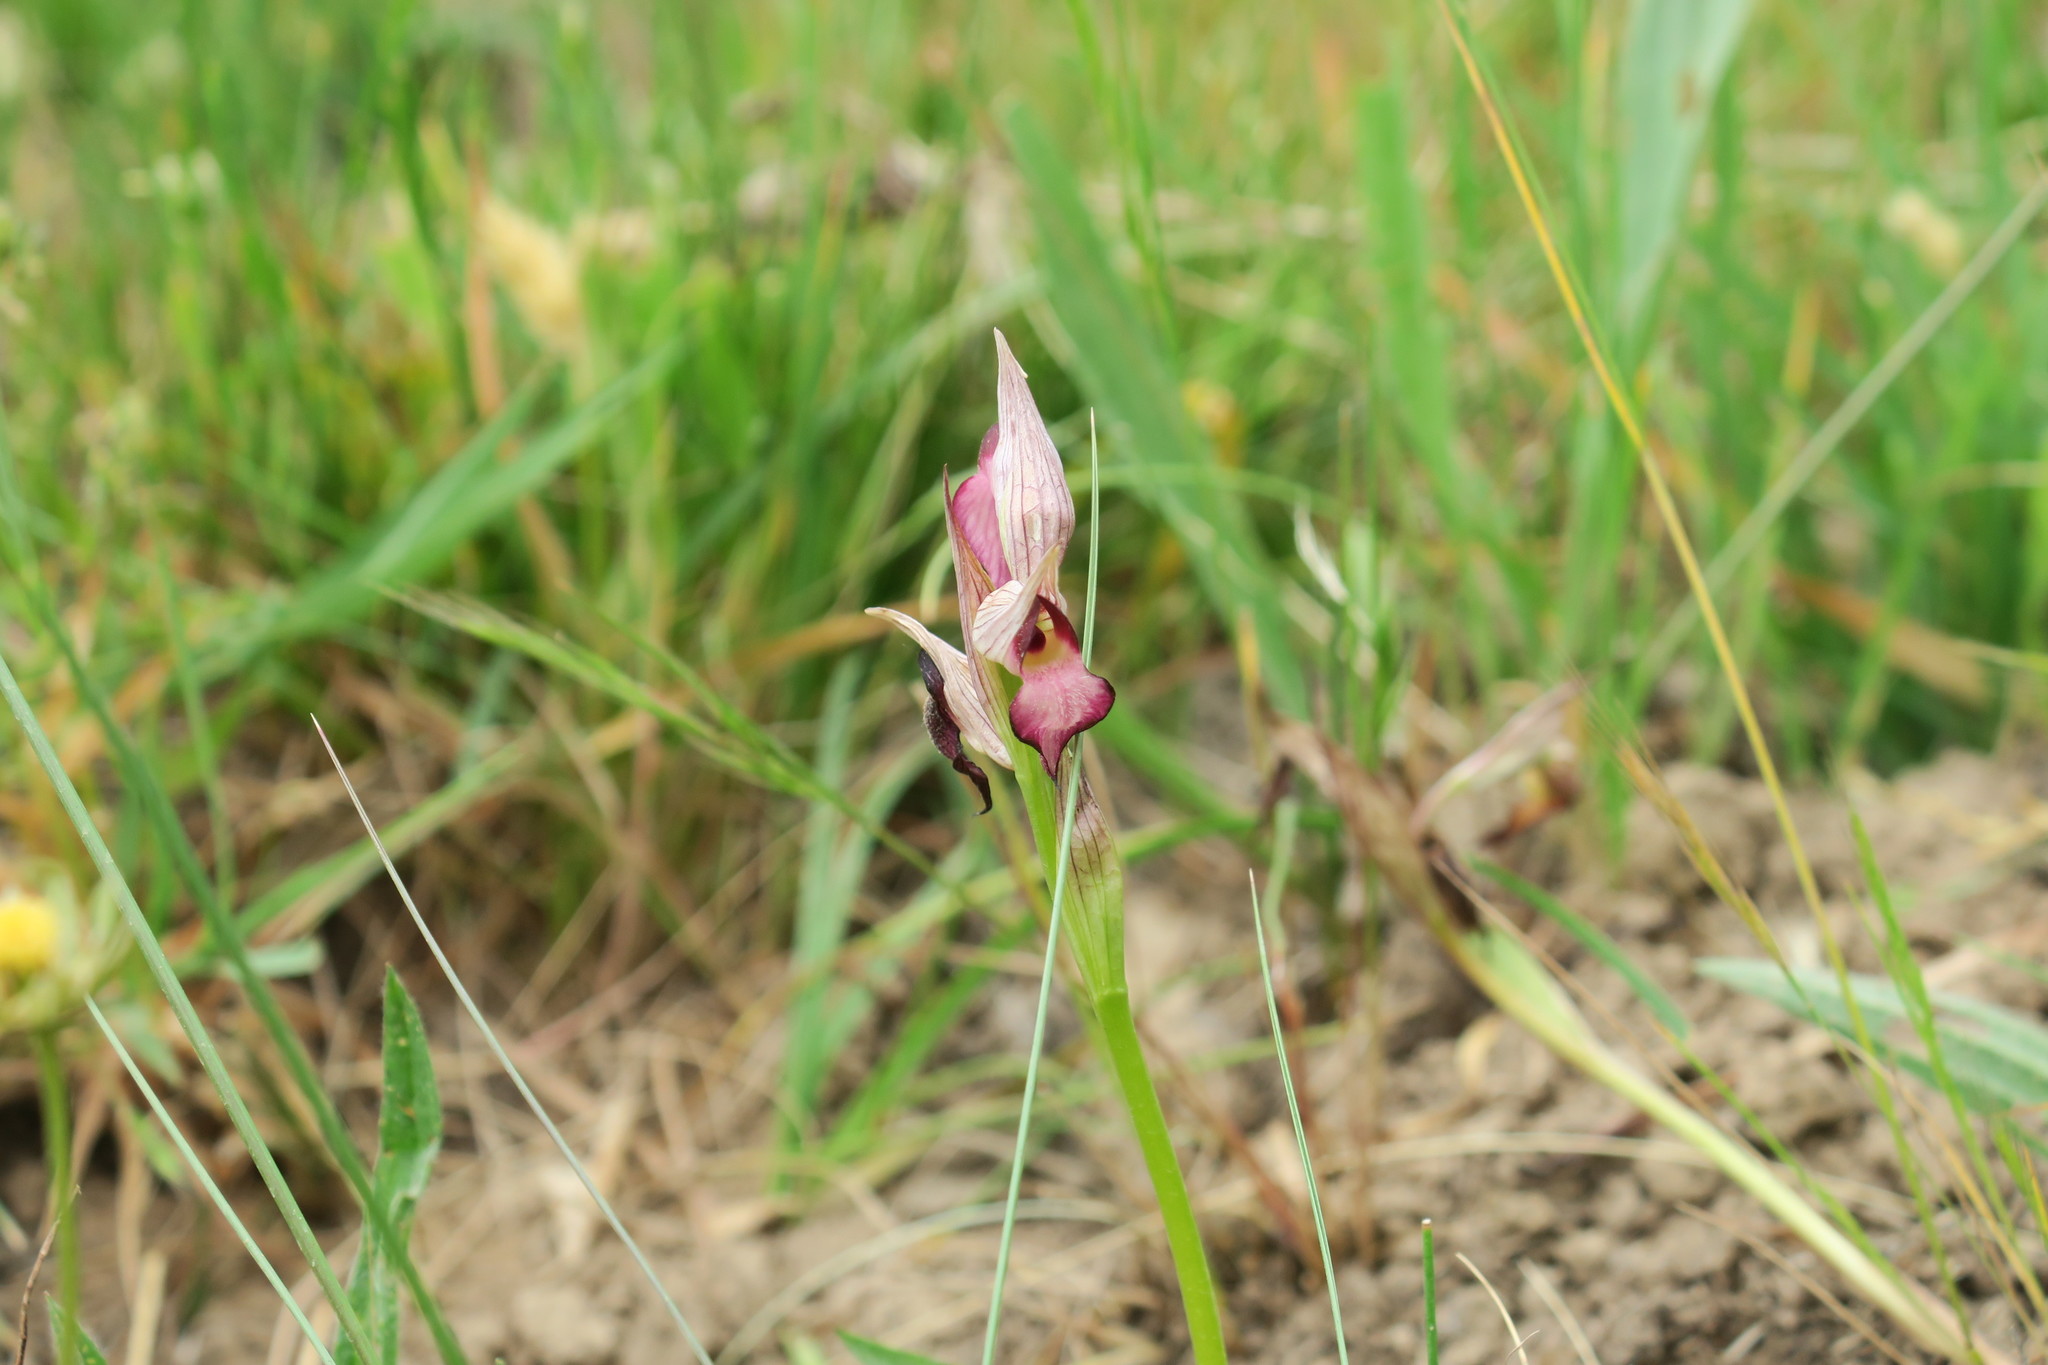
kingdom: Plantae
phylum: Tracheophyta
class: Liliopsida
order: Asparagales
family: Orchidaceae
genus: Serapias
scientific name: Serapias lingua
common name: Tongue-orchid
